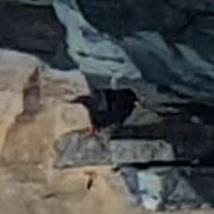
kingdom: Animalia
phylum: Chordata
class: Aves
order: Passeriformes
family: Corvidae
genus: Pyrrhocorax
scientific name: Pyrrhocorax graculus
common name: Alpine chough
